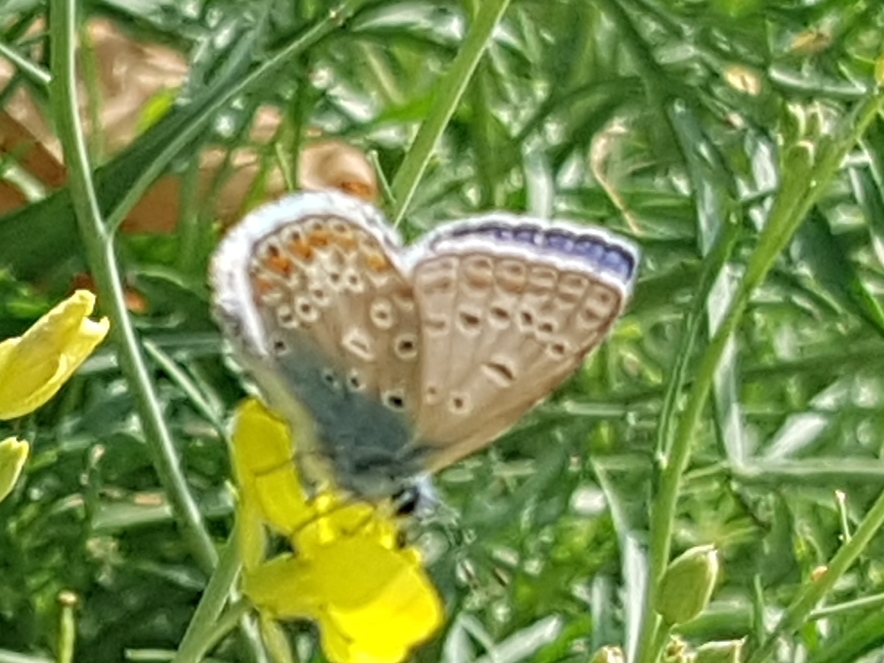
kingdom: Animalia
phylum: Arthropoda
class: Insecta
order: Lepidoptera
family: Lycaenidae
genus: Polyommatus
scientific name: Polyommatus icarus
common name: Common blue
